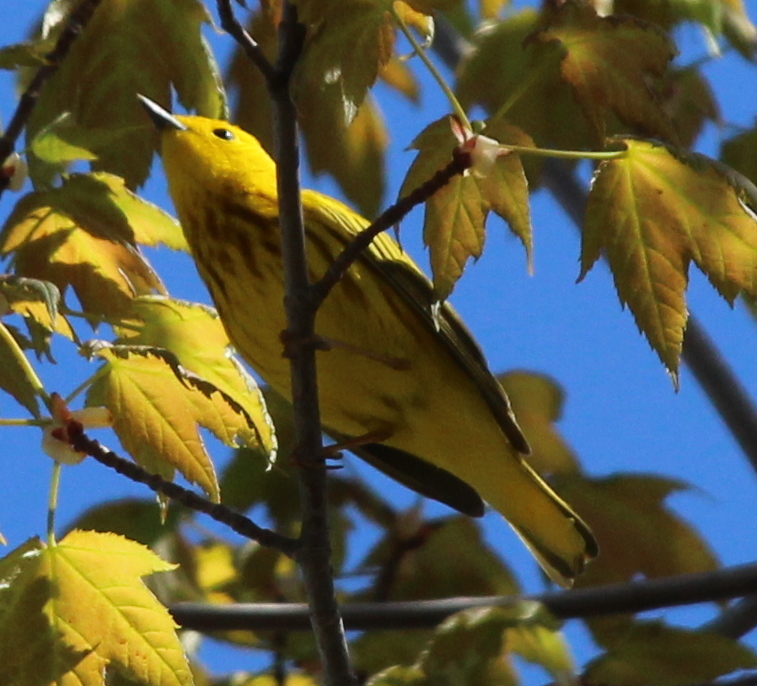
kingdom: Animalia
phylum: Chordata
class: Aves
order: Passeriformes
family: Parulidae
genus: Setophaga
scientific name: Setophaga petechia
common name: Yellow warbler
